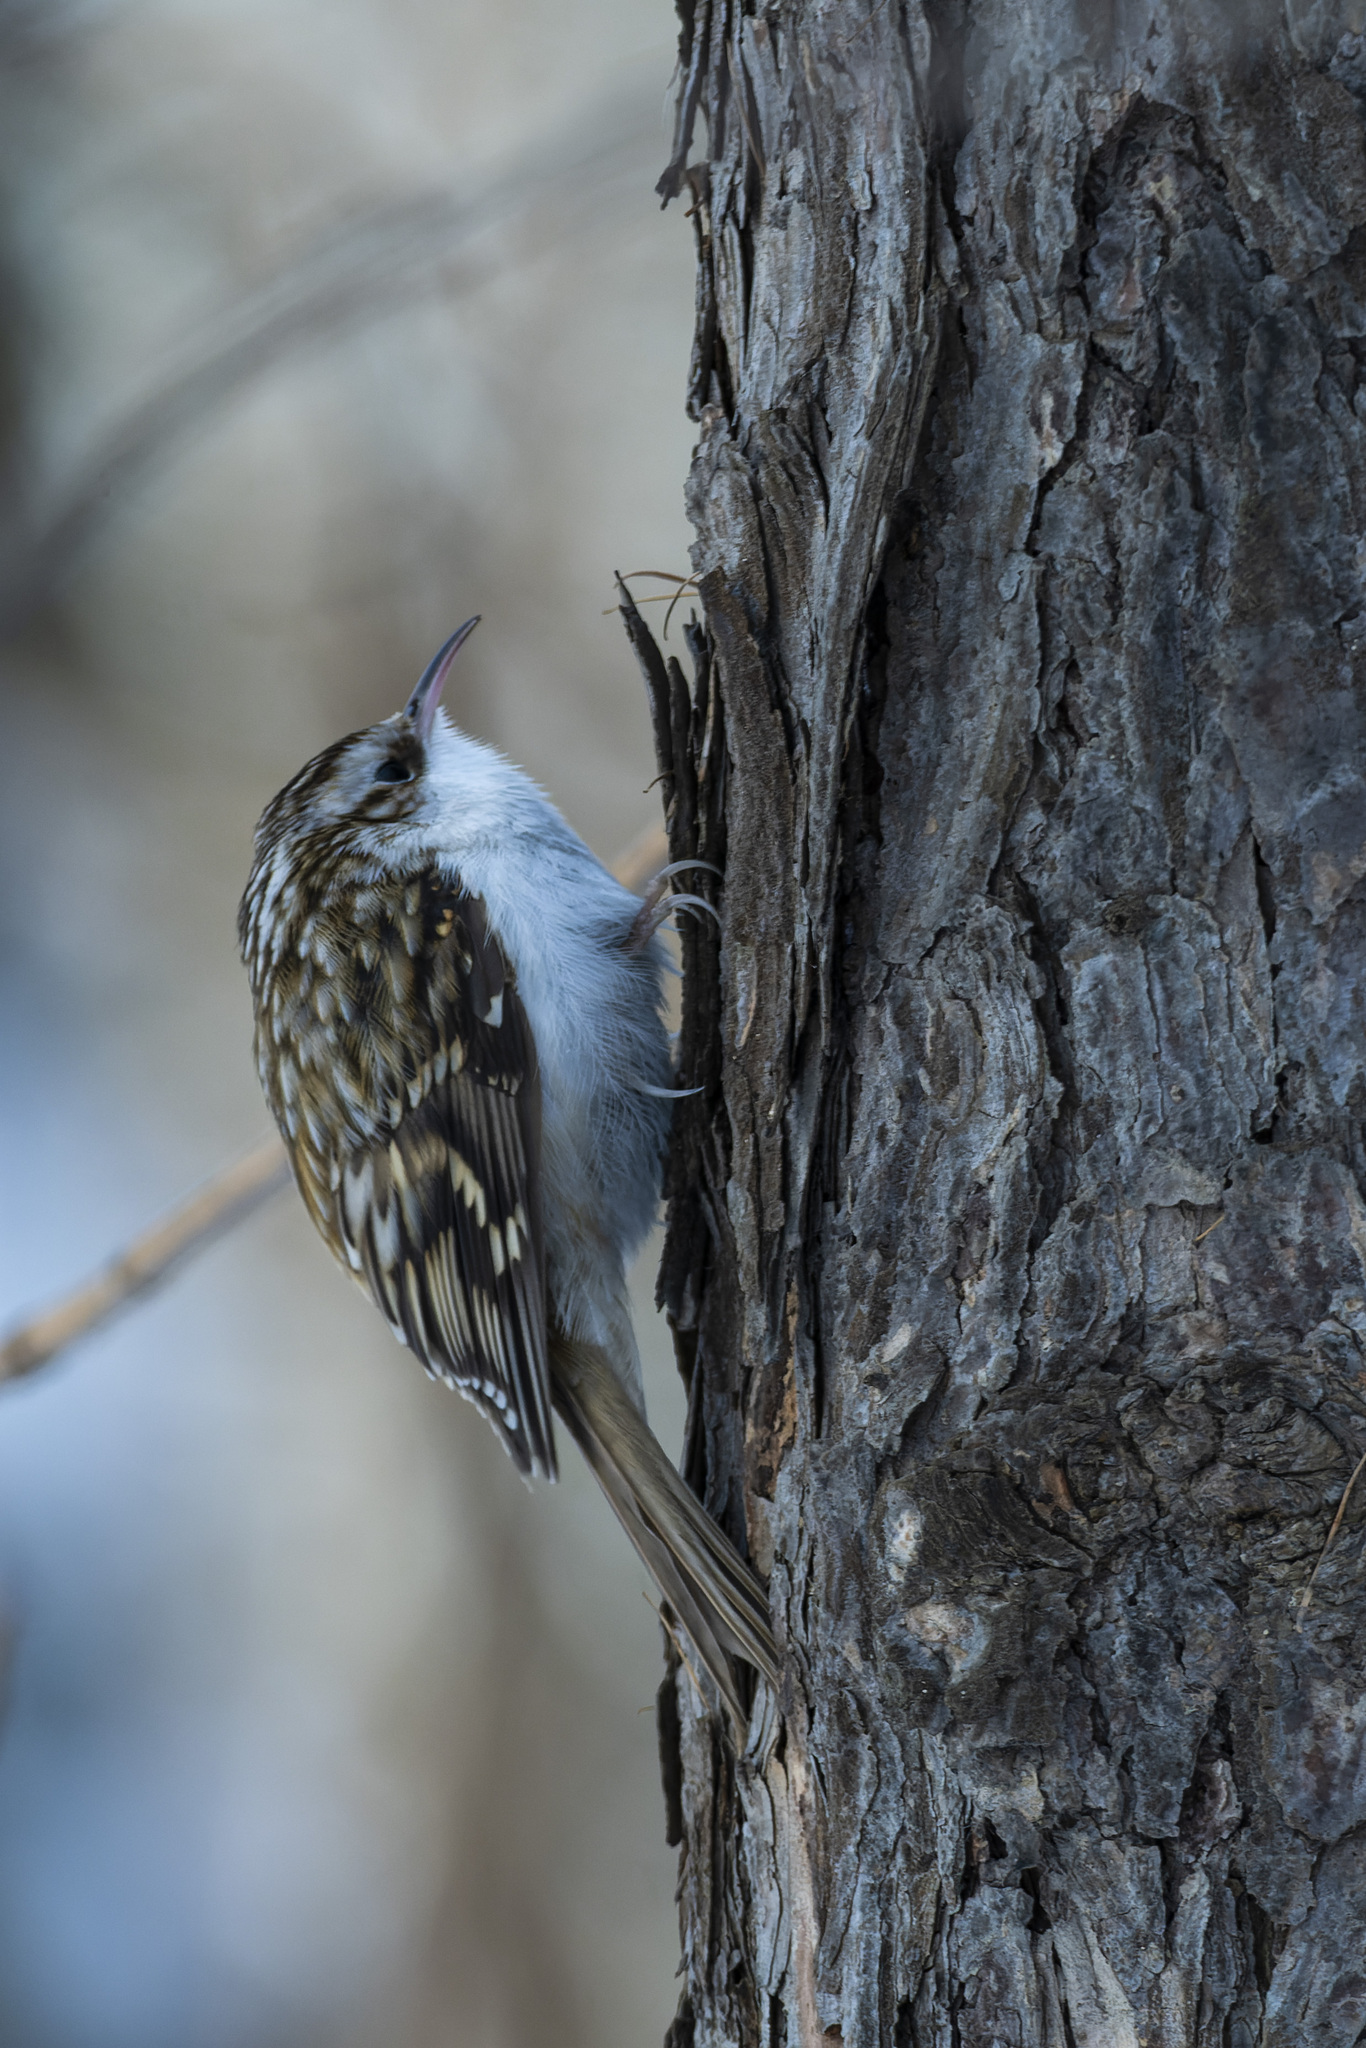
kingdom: Animalia
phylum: Chordata
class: Aves
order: Passeriformes
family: Certhiidae
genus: Certhia
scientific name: Certhia familiaris
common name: Eurasian treecreeper
